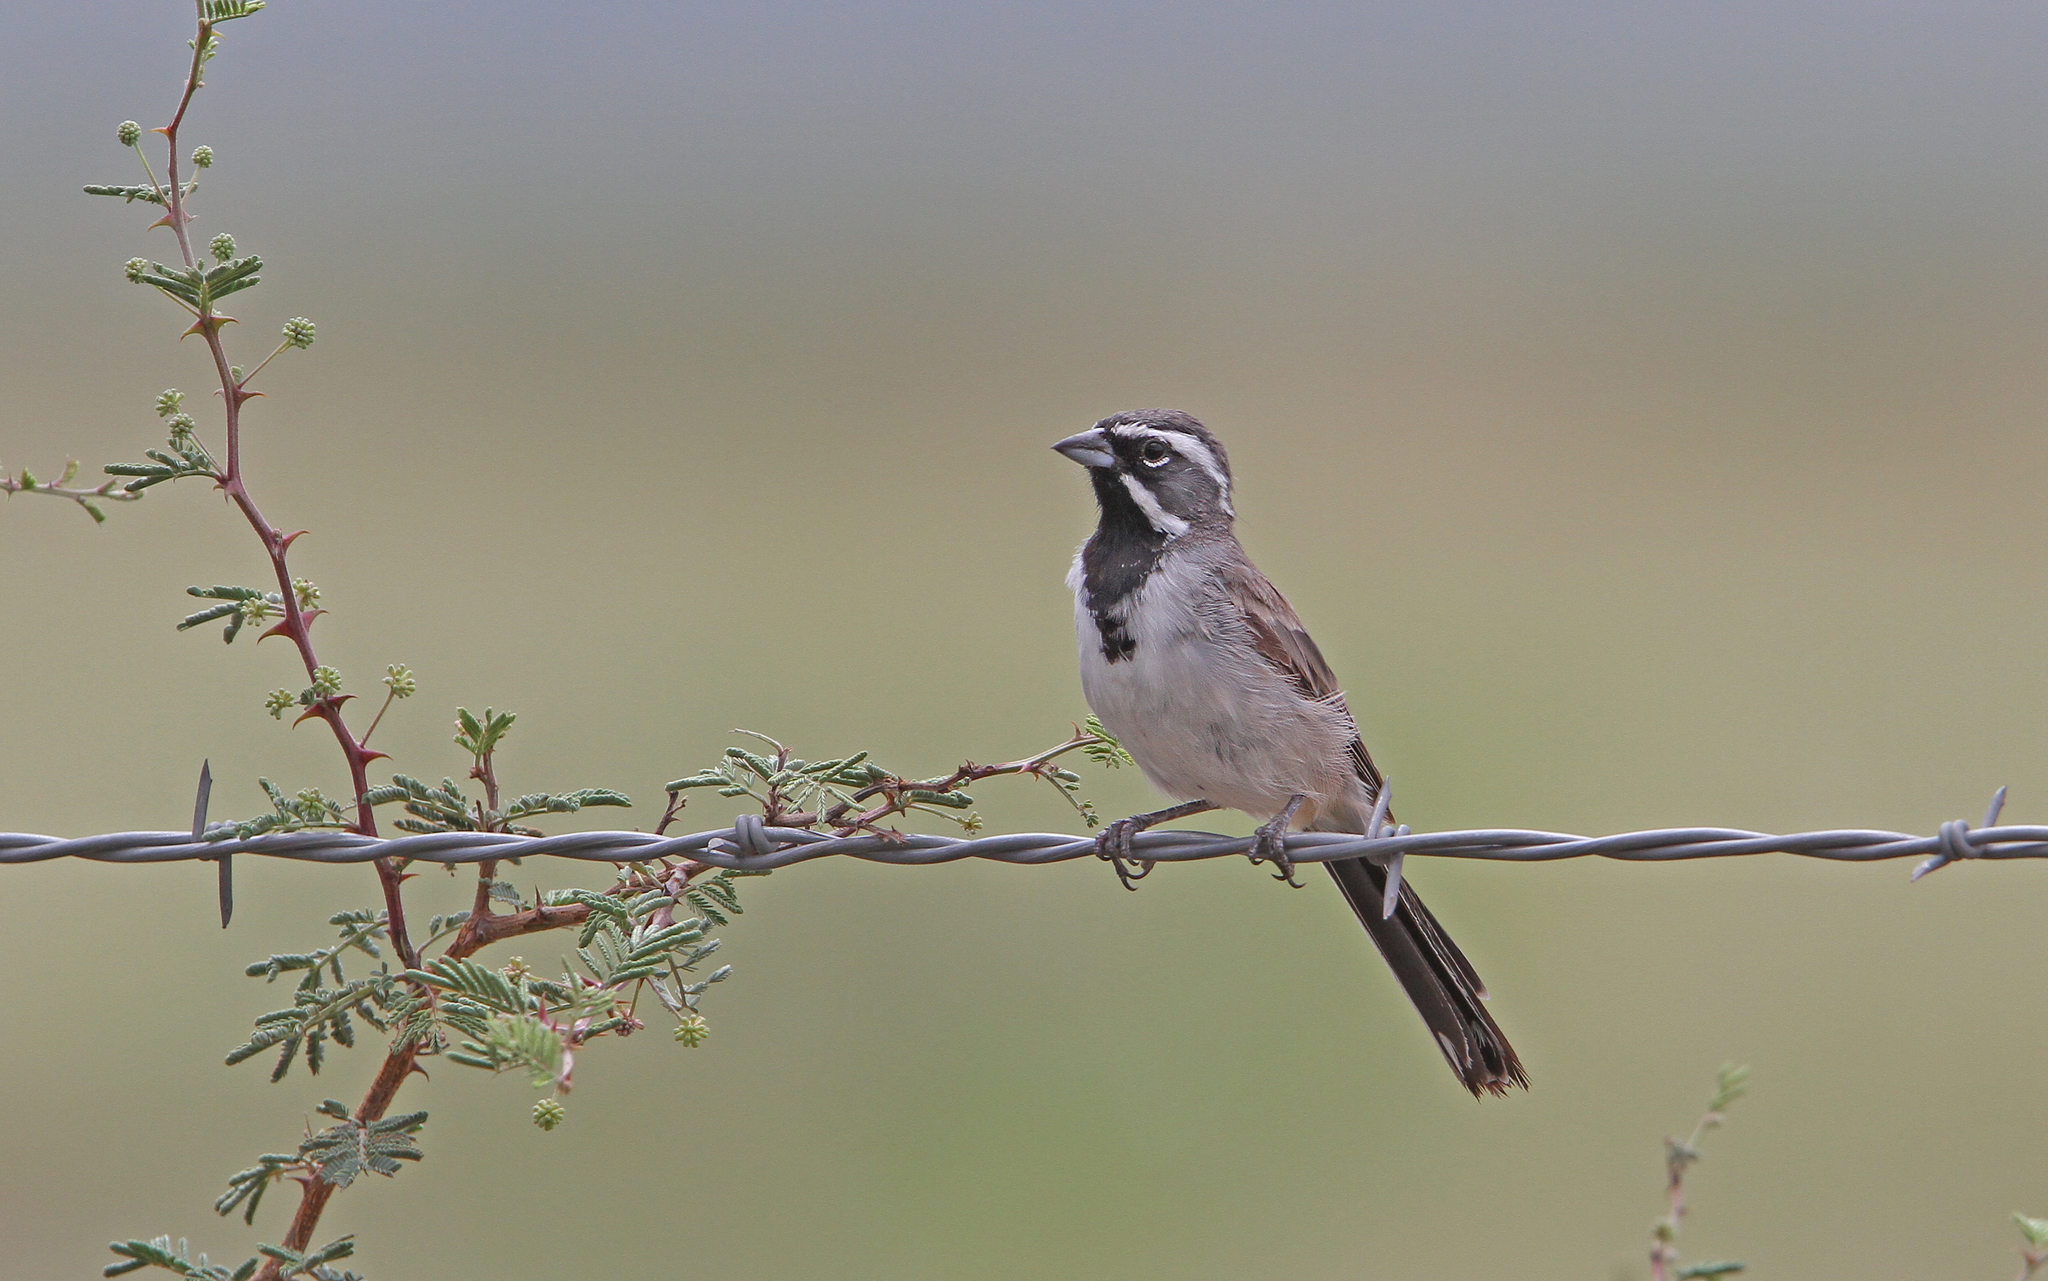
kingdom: Animalia
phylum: Chordata
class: Aves
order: Passeriformes
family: Passerellidae
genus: Amphispiza
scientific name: Amphispiza bilineata
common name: Black-throated sparrow
